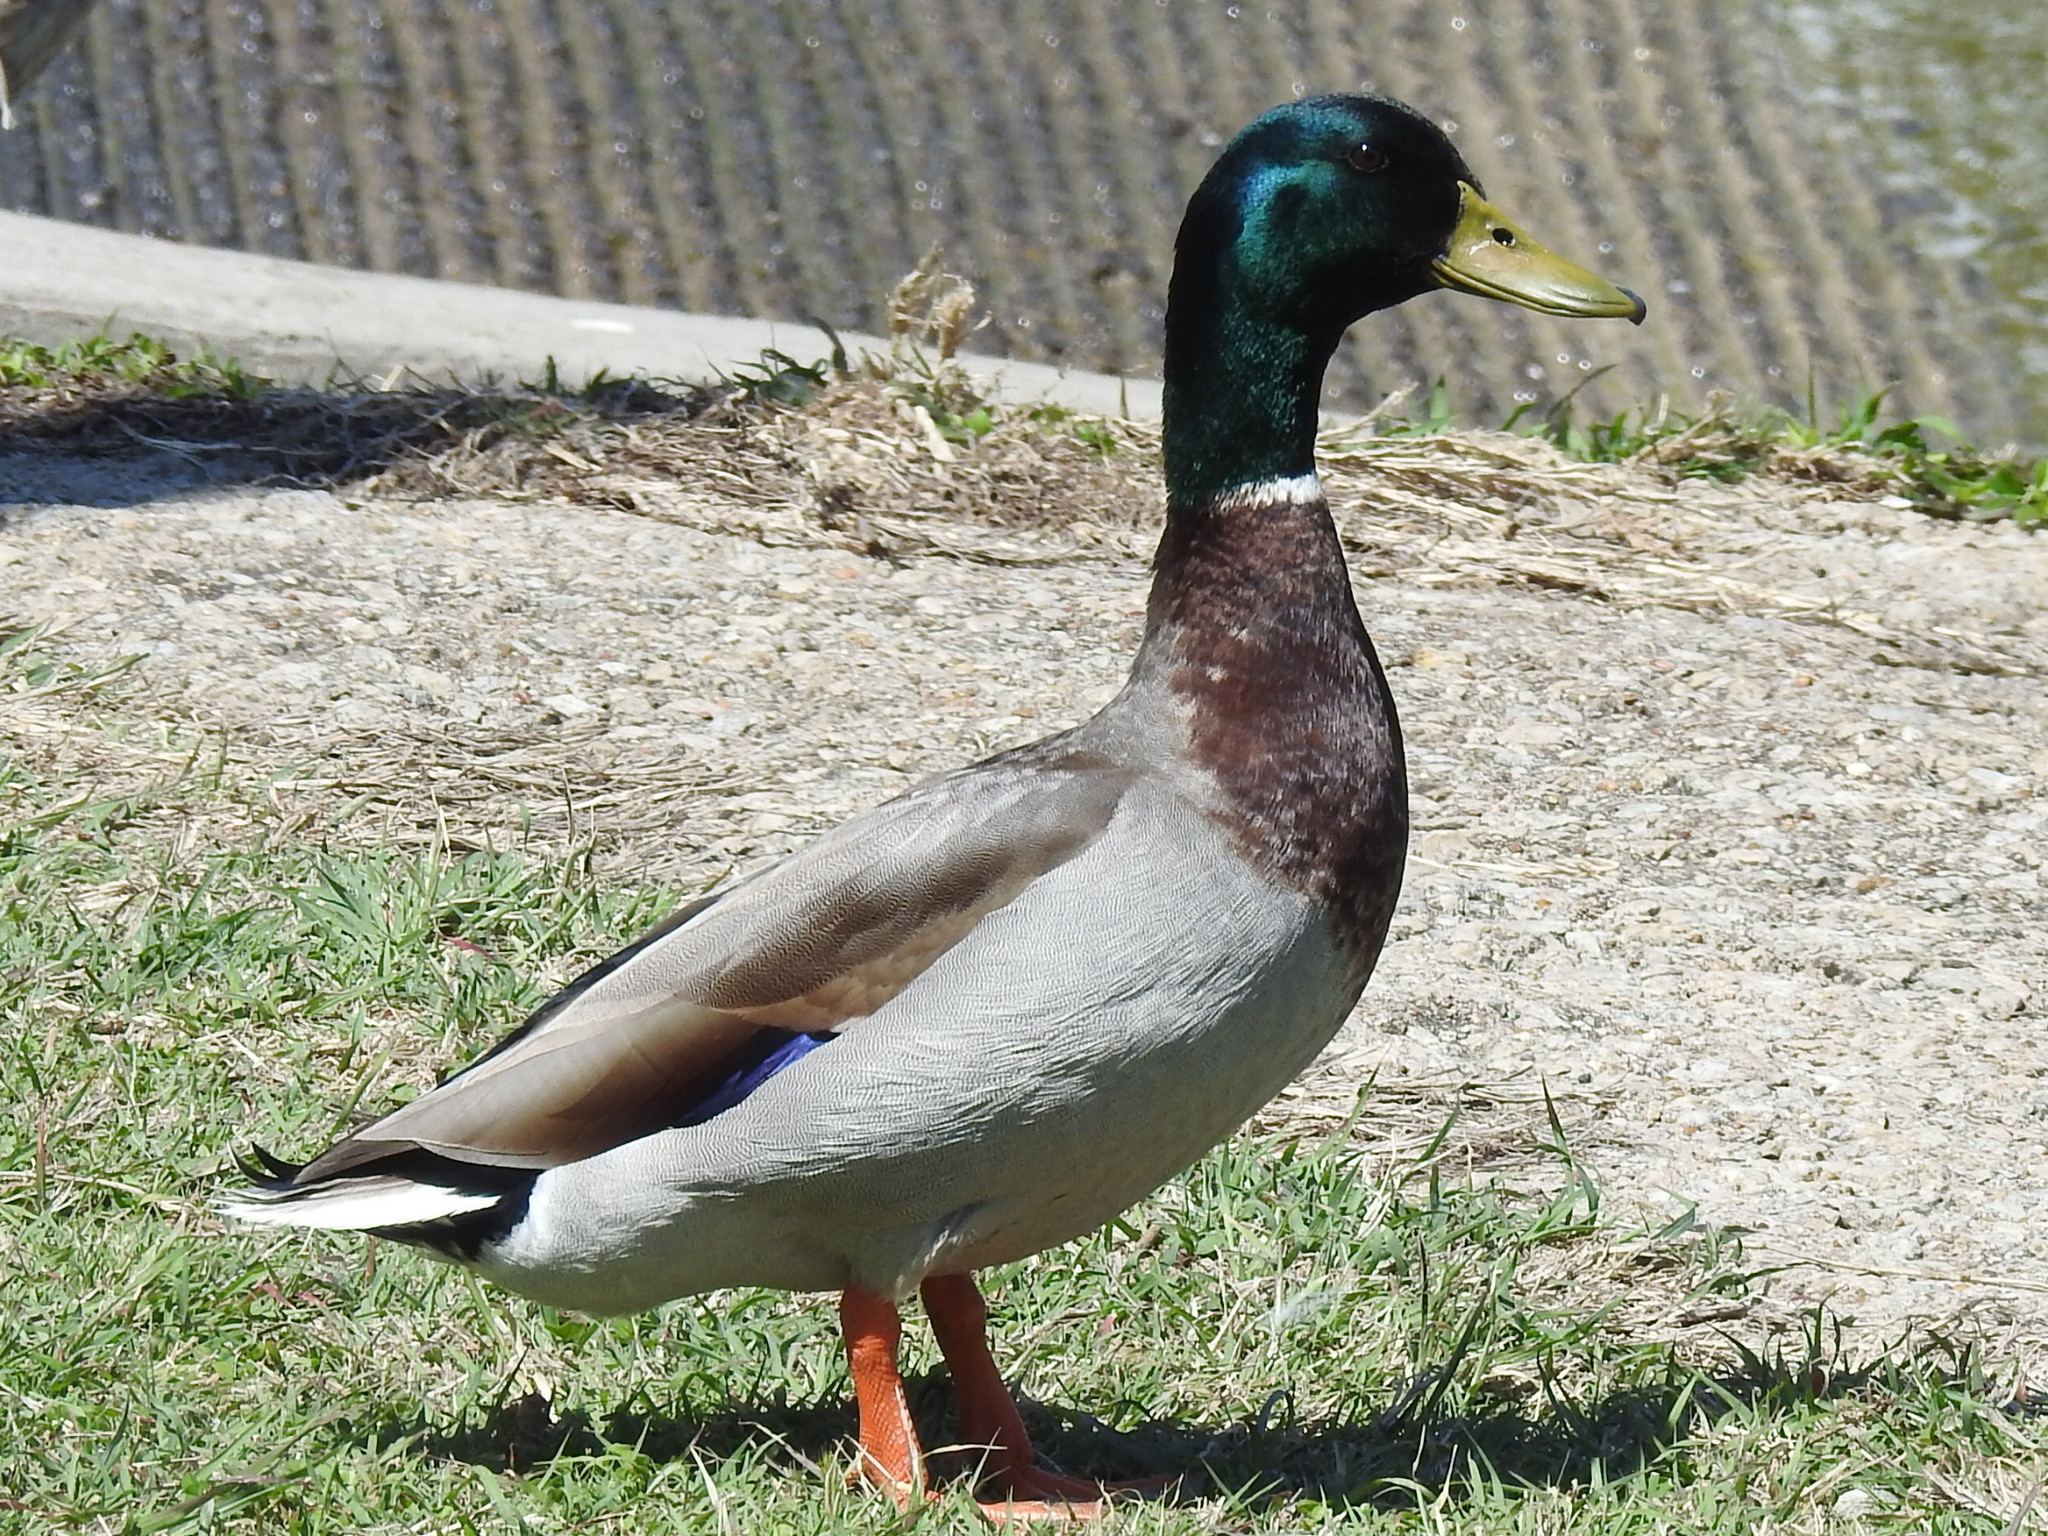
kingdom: Animalia
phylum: Chordata
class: Aves
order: Anseriformes
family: Anatidae
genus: Anas
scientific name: Anas platyrhynchos
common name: Mallard
